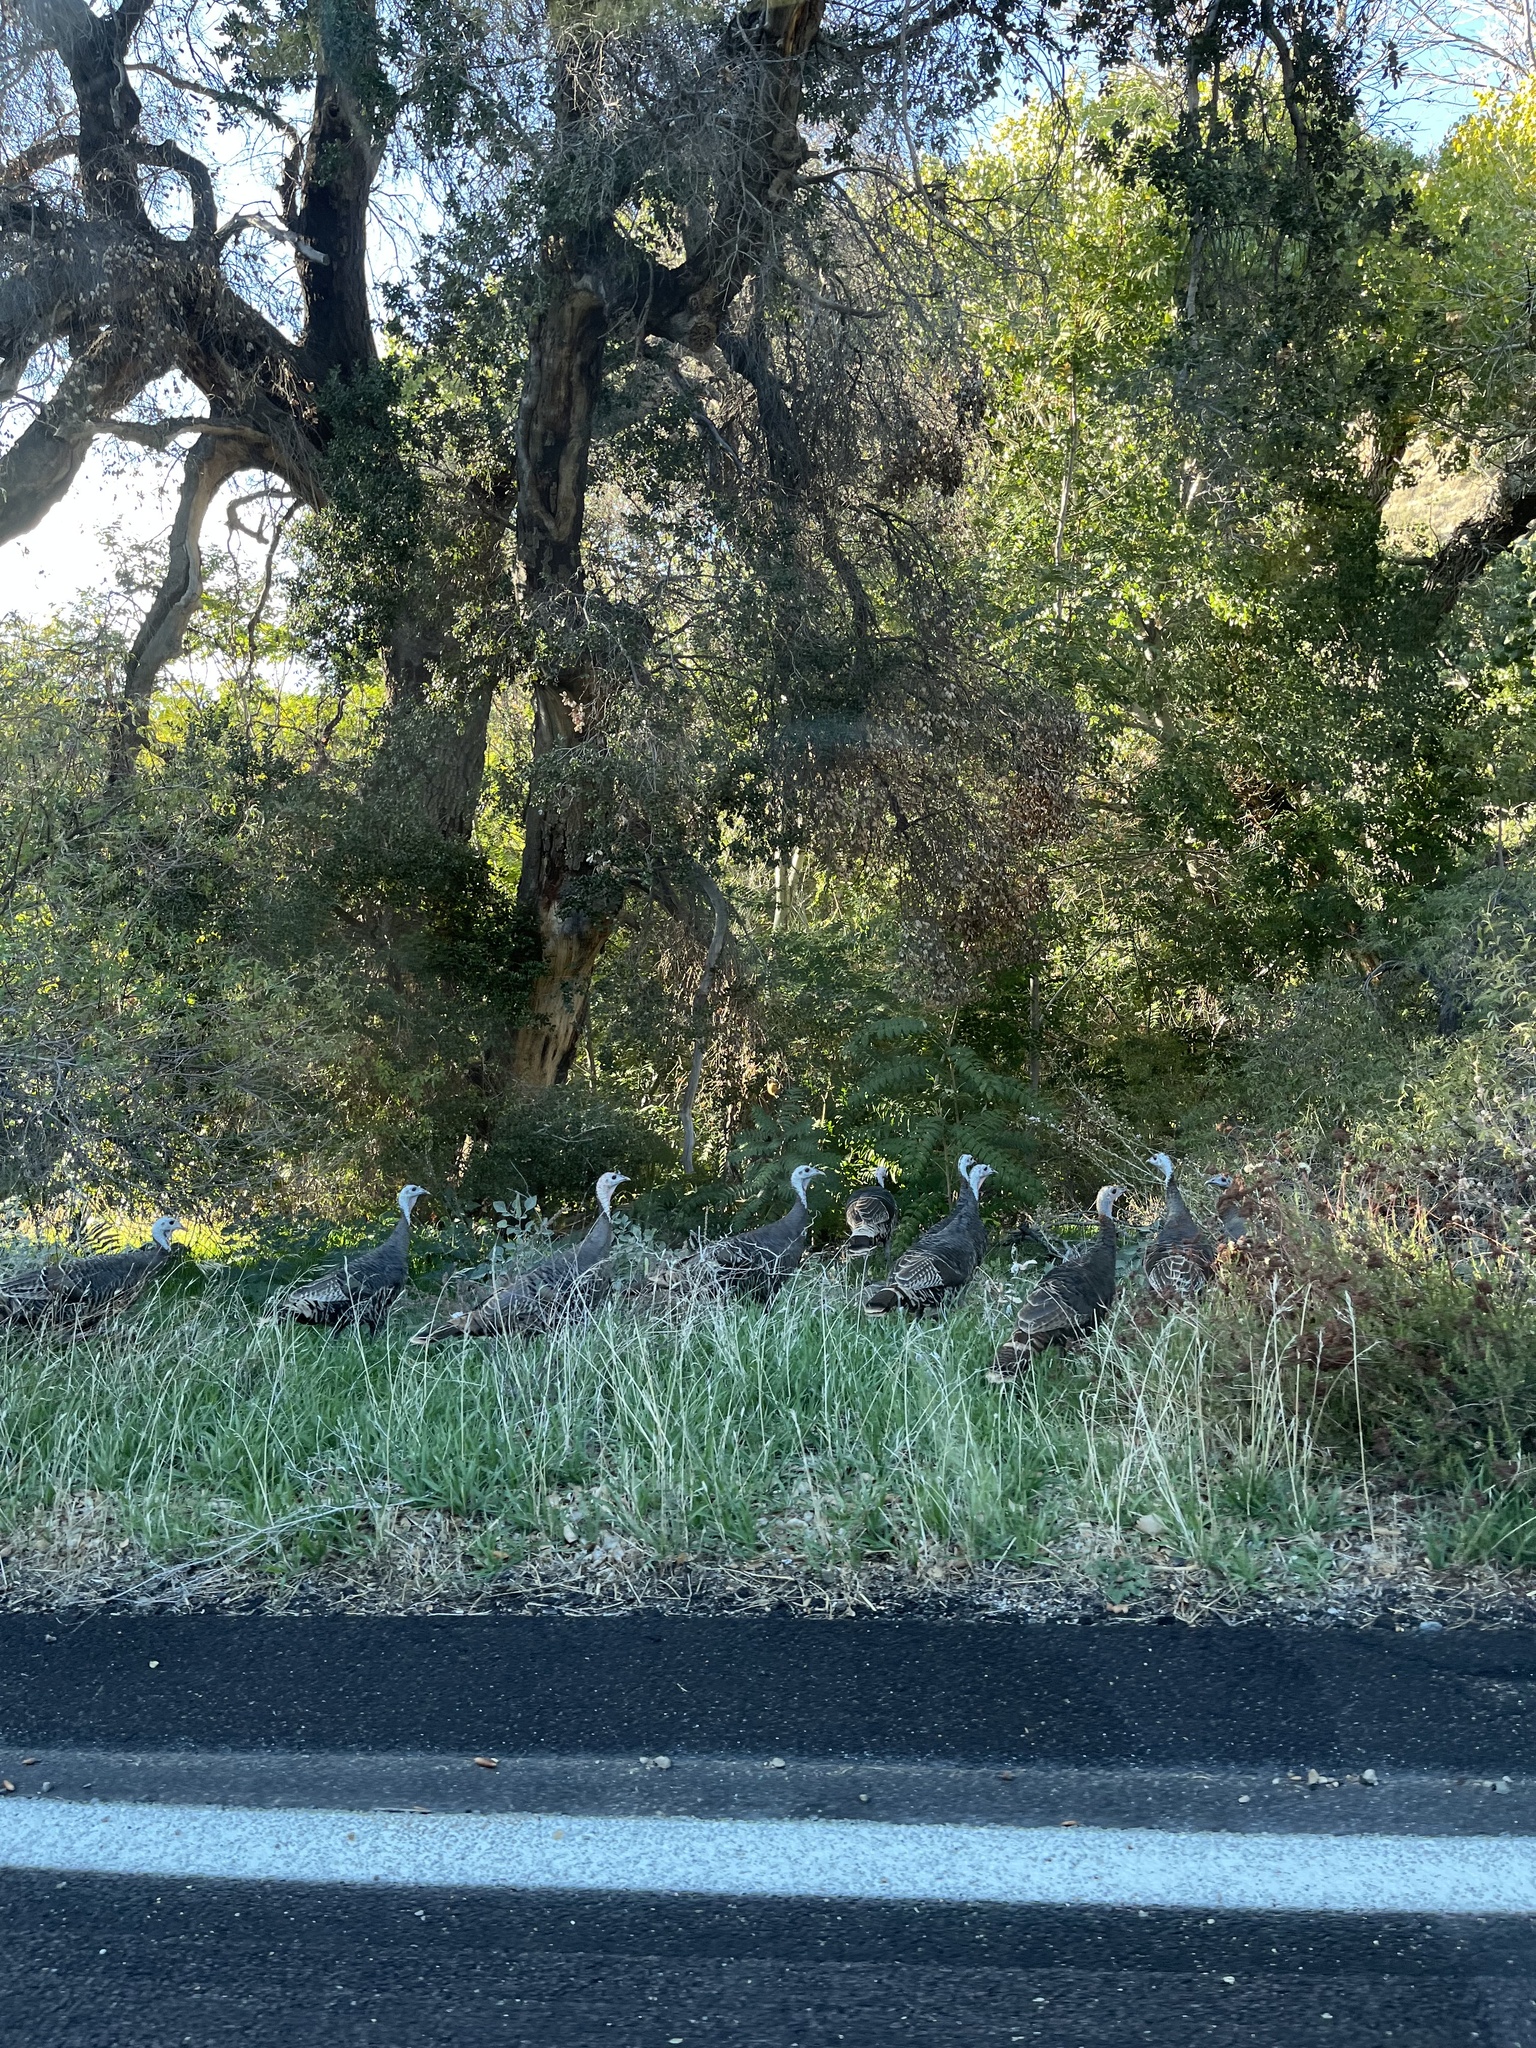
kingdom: Animalia
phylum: Chordata
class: Aves
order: Galliformes
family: Phasianidae
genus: Meleagris
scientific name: Meleagris gallopavo
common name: Wild turkey
